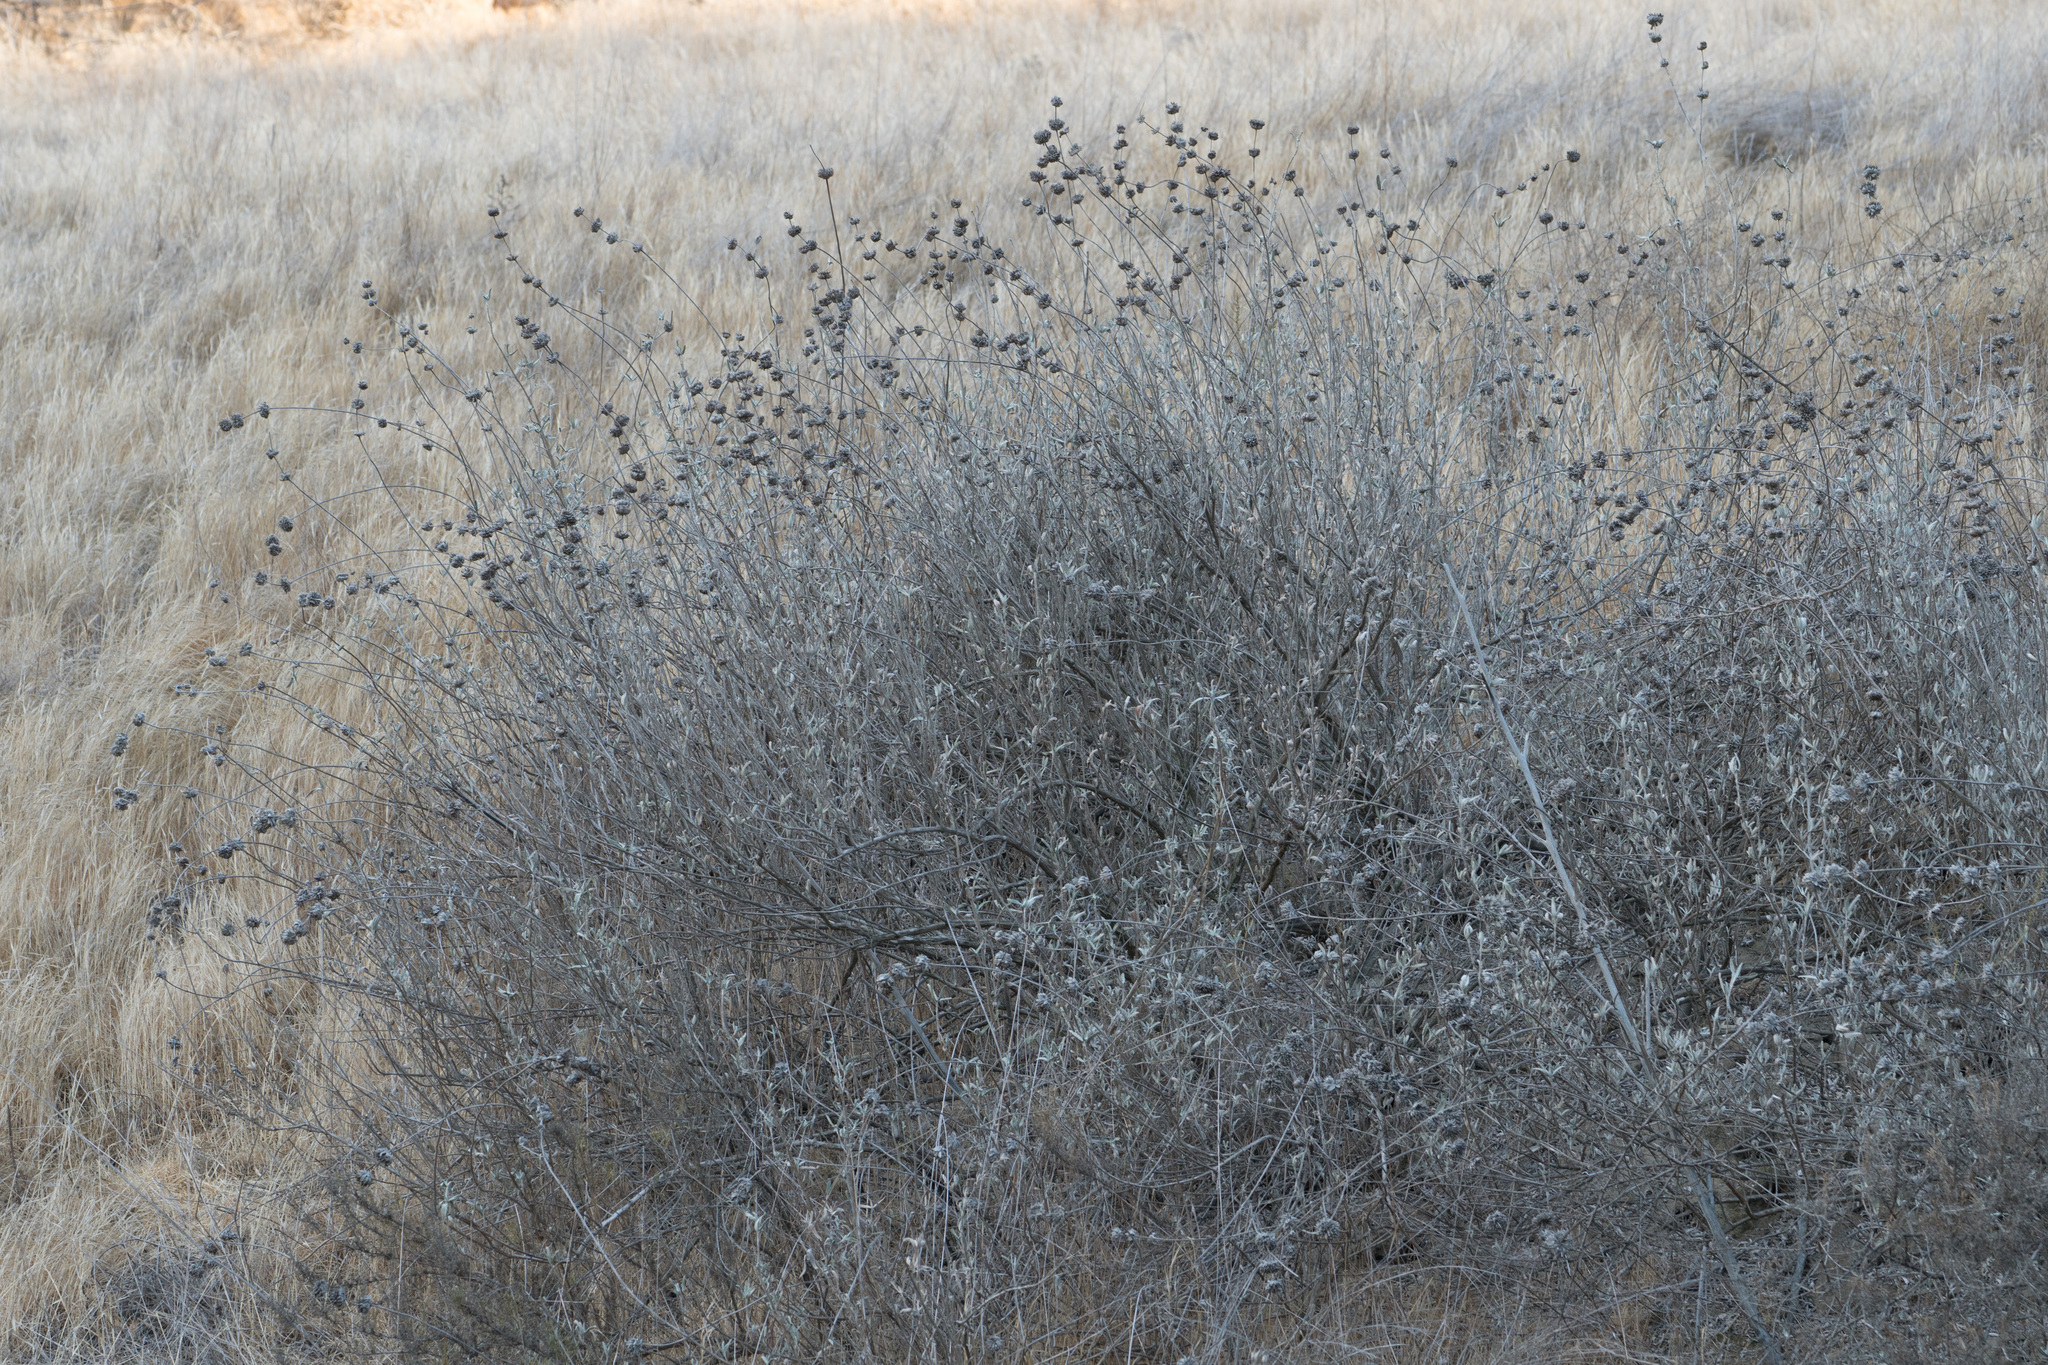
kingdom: Plantae
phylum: Tracheophyta
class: Magnoliopsida
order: Lamiales
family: Lamiaceae
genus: Salvia
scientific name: Salvia leucophylla
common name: Purple sage
